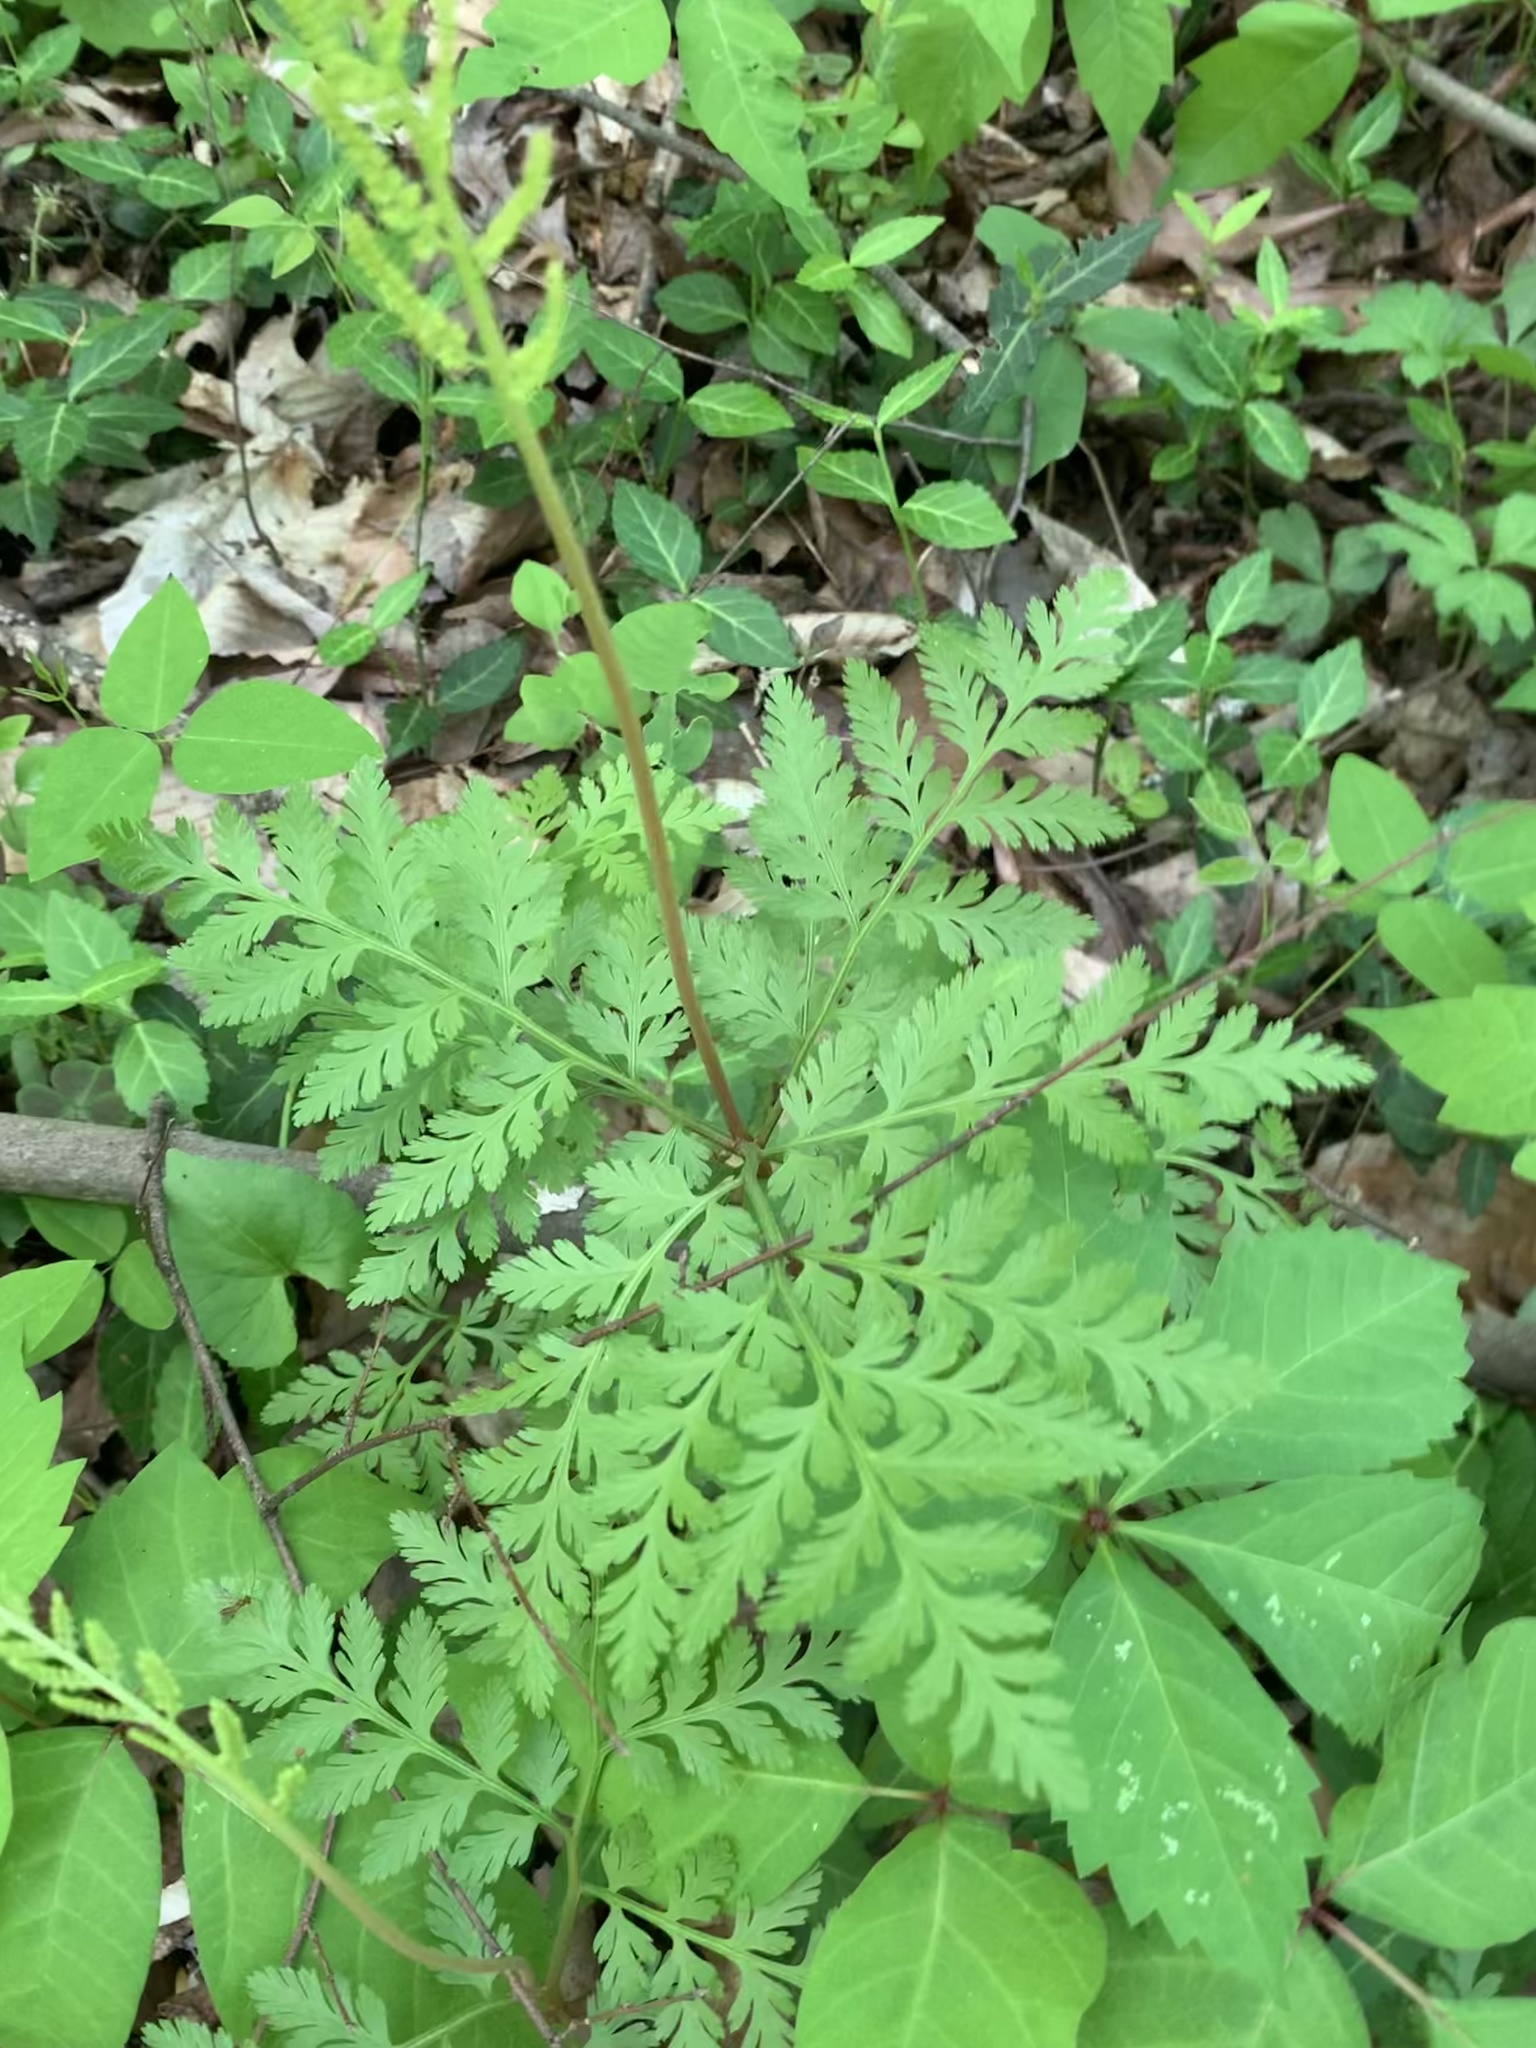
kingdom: Plantae
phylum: Tracheophyta
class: Polypodiopsida
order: Ophioglossales
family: Ophioglossaceae
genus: Botrypus
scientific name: Botrypus virginianus
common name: Common grapefern
